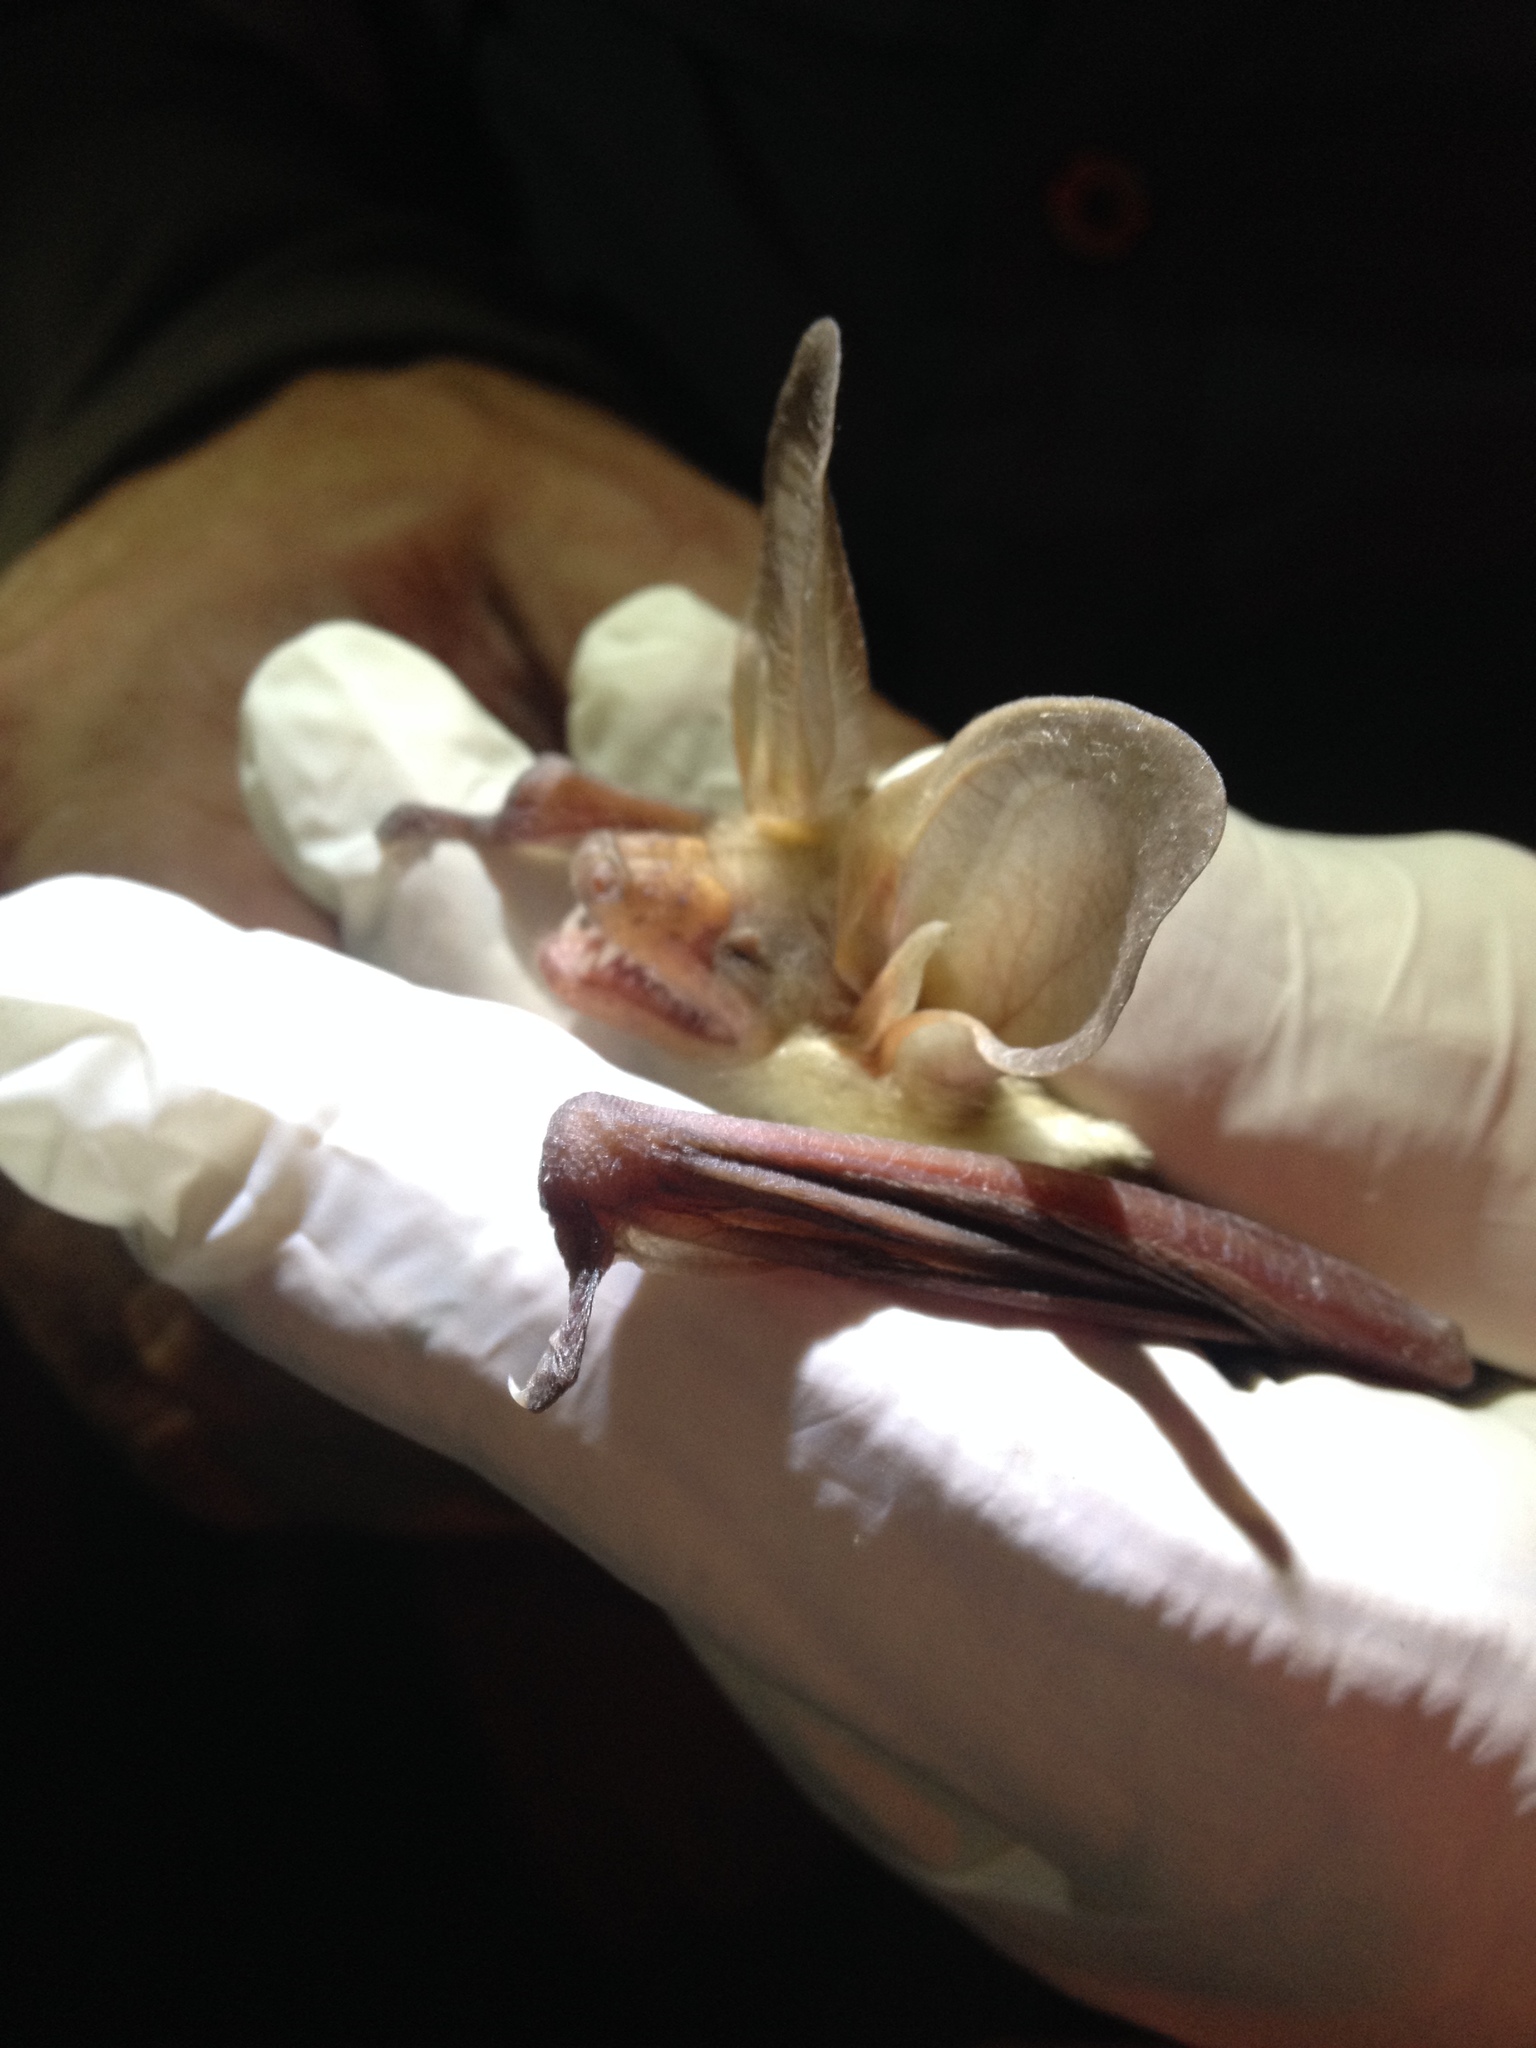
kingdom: Animalia
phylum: Chordata
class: Mammalia
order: Chiroptera
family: Vespertilionidae
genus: Antrozous
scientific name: Antrozous pallidus
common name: Pallid bat
